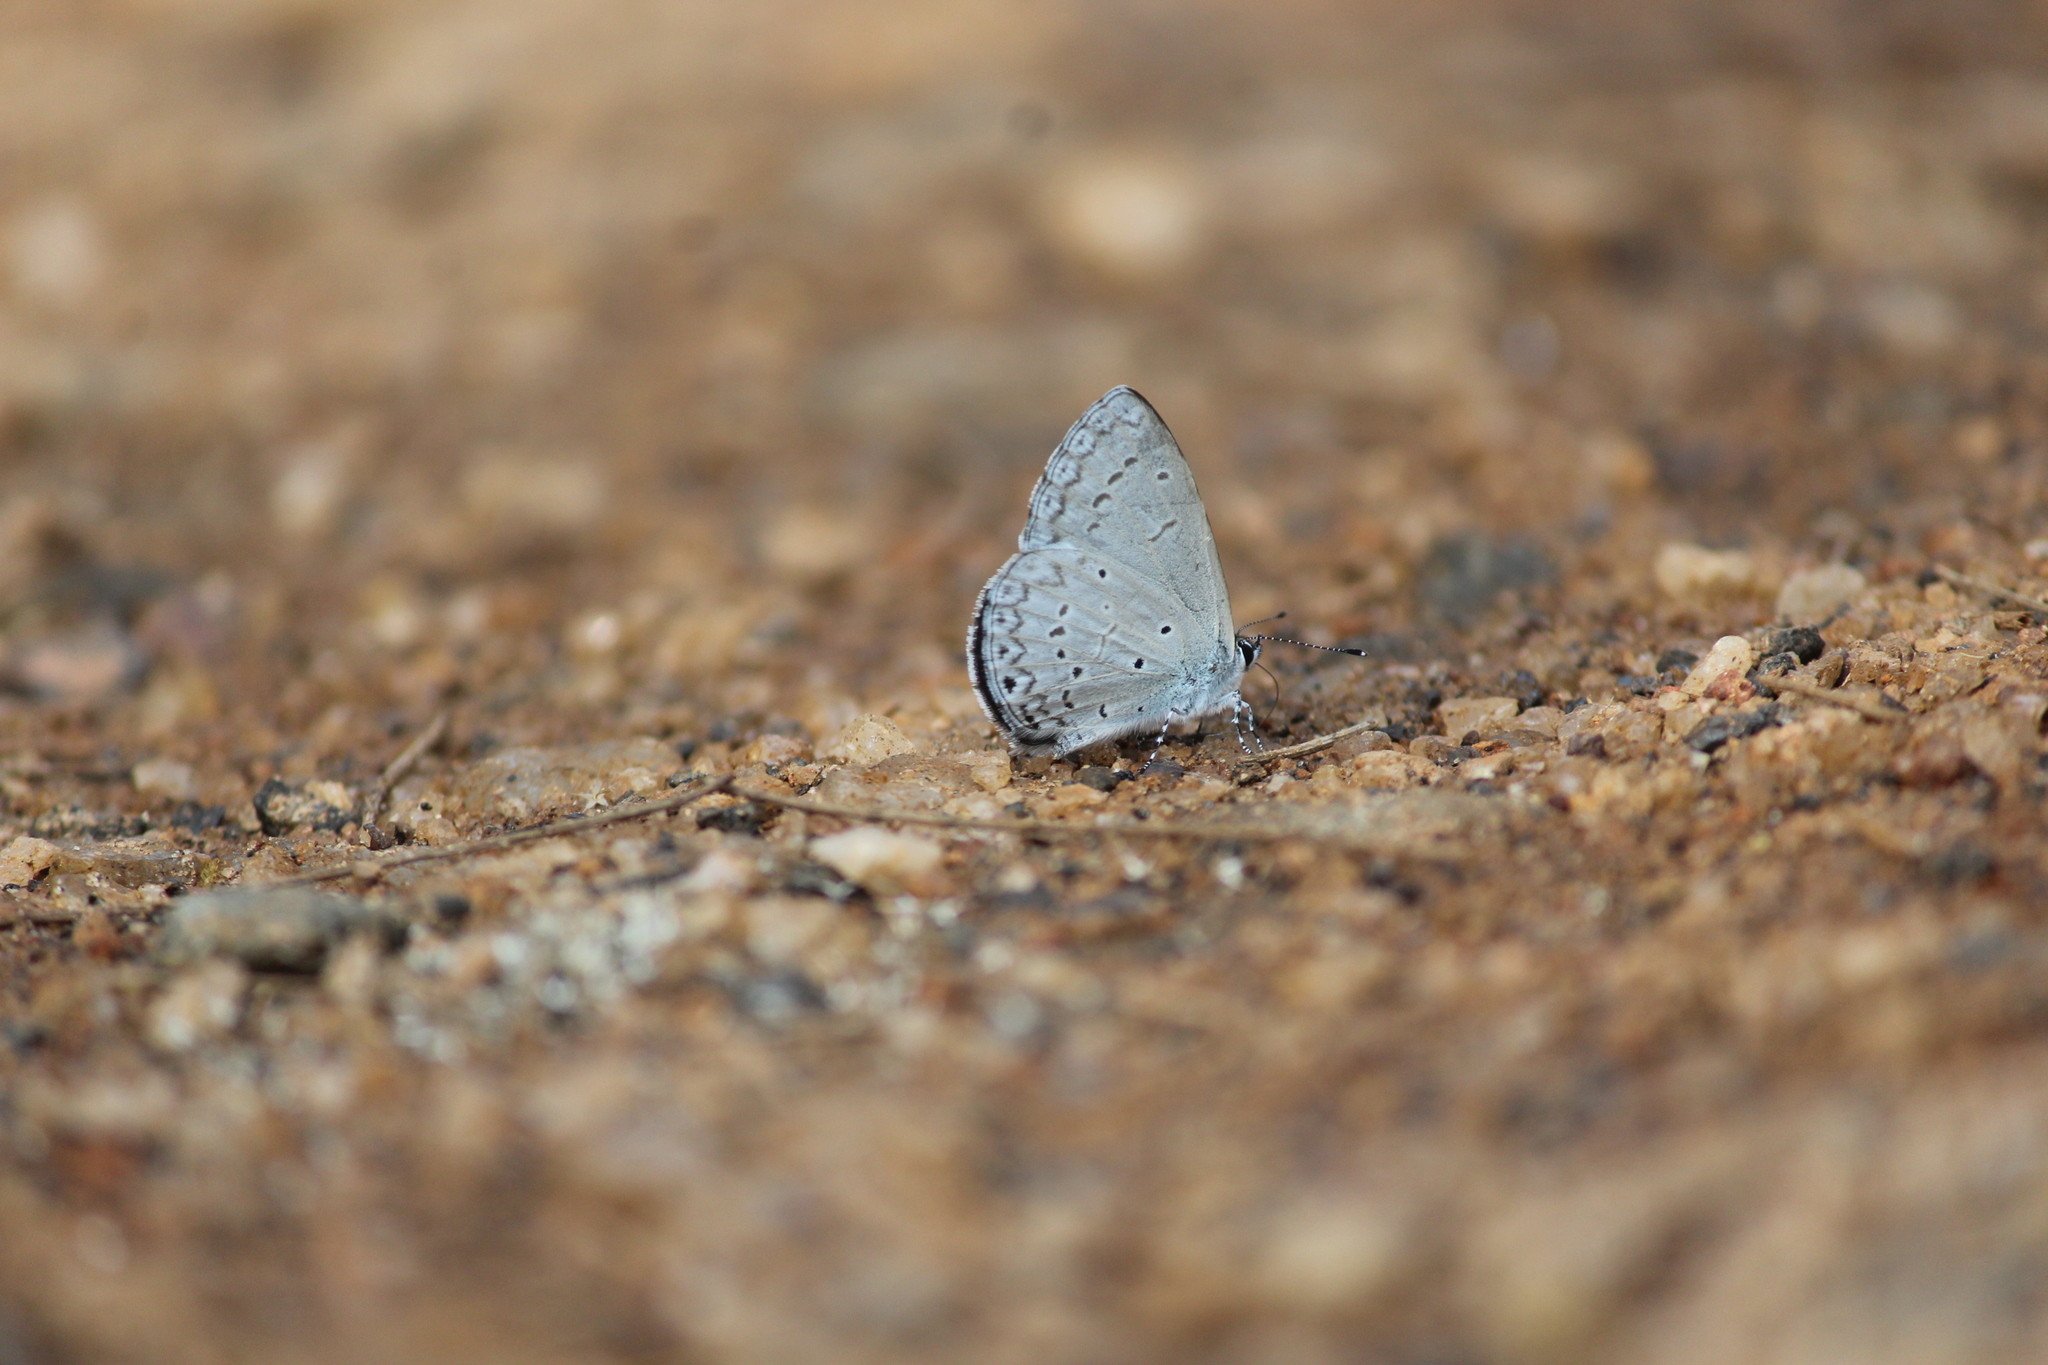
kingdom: Animalia
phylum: Arthropoda
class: Insecta
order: Lepidoptera
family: Lycaenidae
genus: Celastrina
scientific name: Celastrina lavendularis
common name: Plain hedge blue
